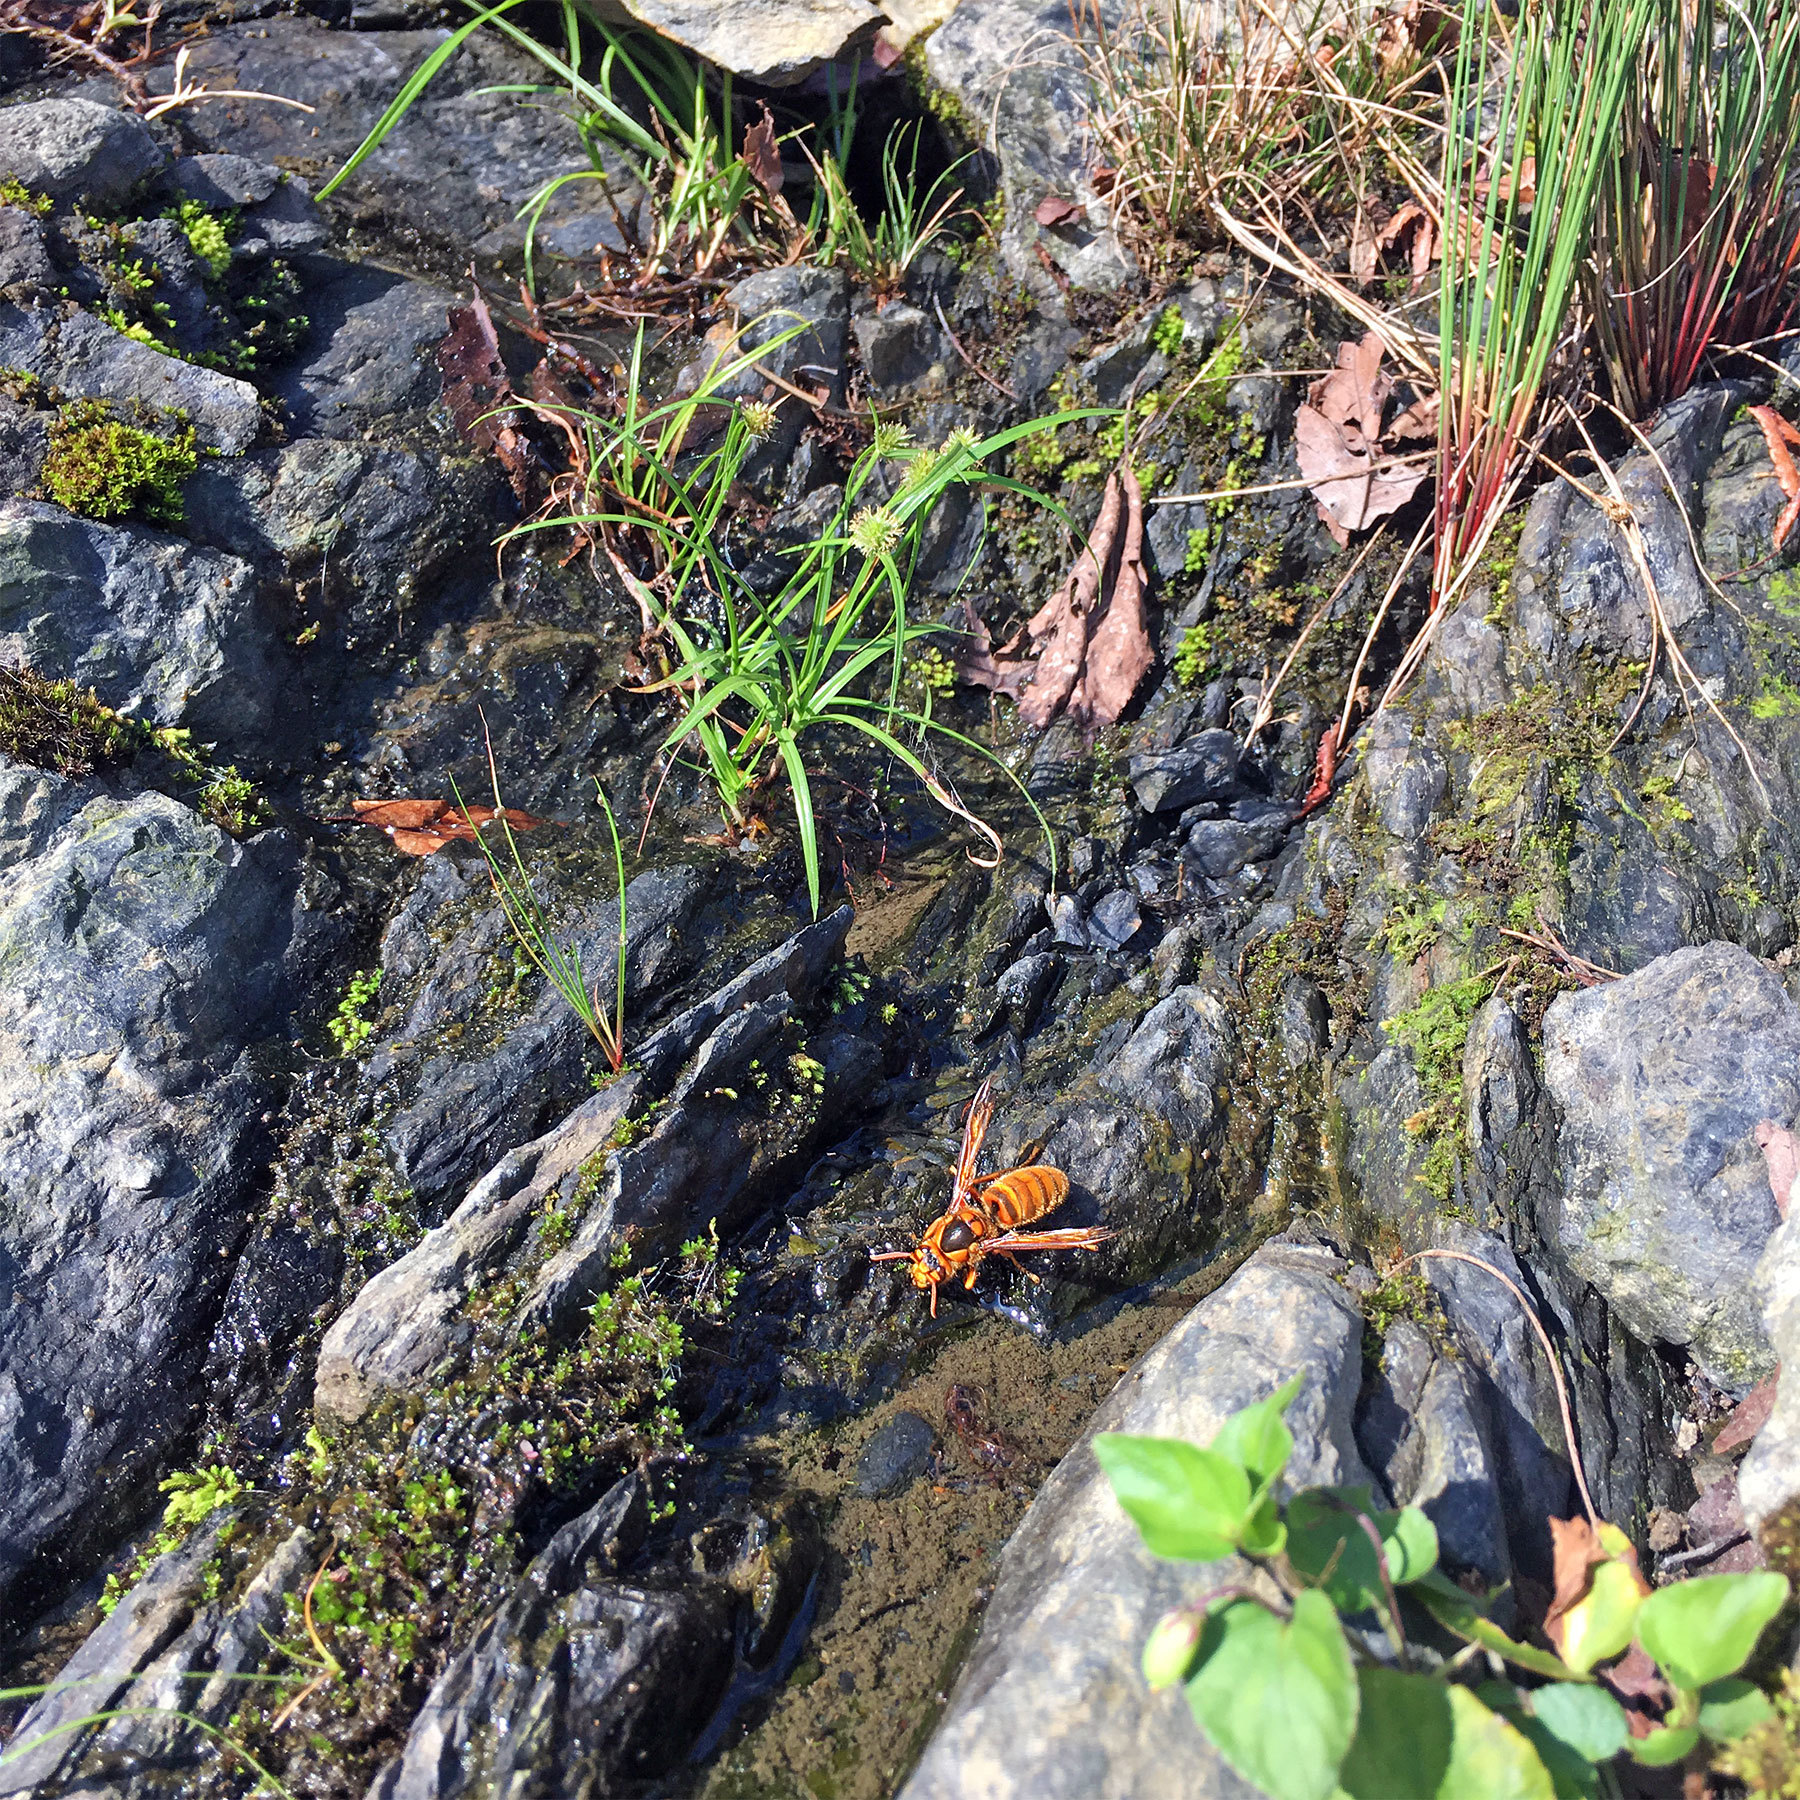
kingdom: Animalia
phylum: Arthropoda
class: Insecta
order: Hymenoptera
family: Vespidae
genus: Vespa
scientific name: Vespa simillima
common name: Vespid wasp
